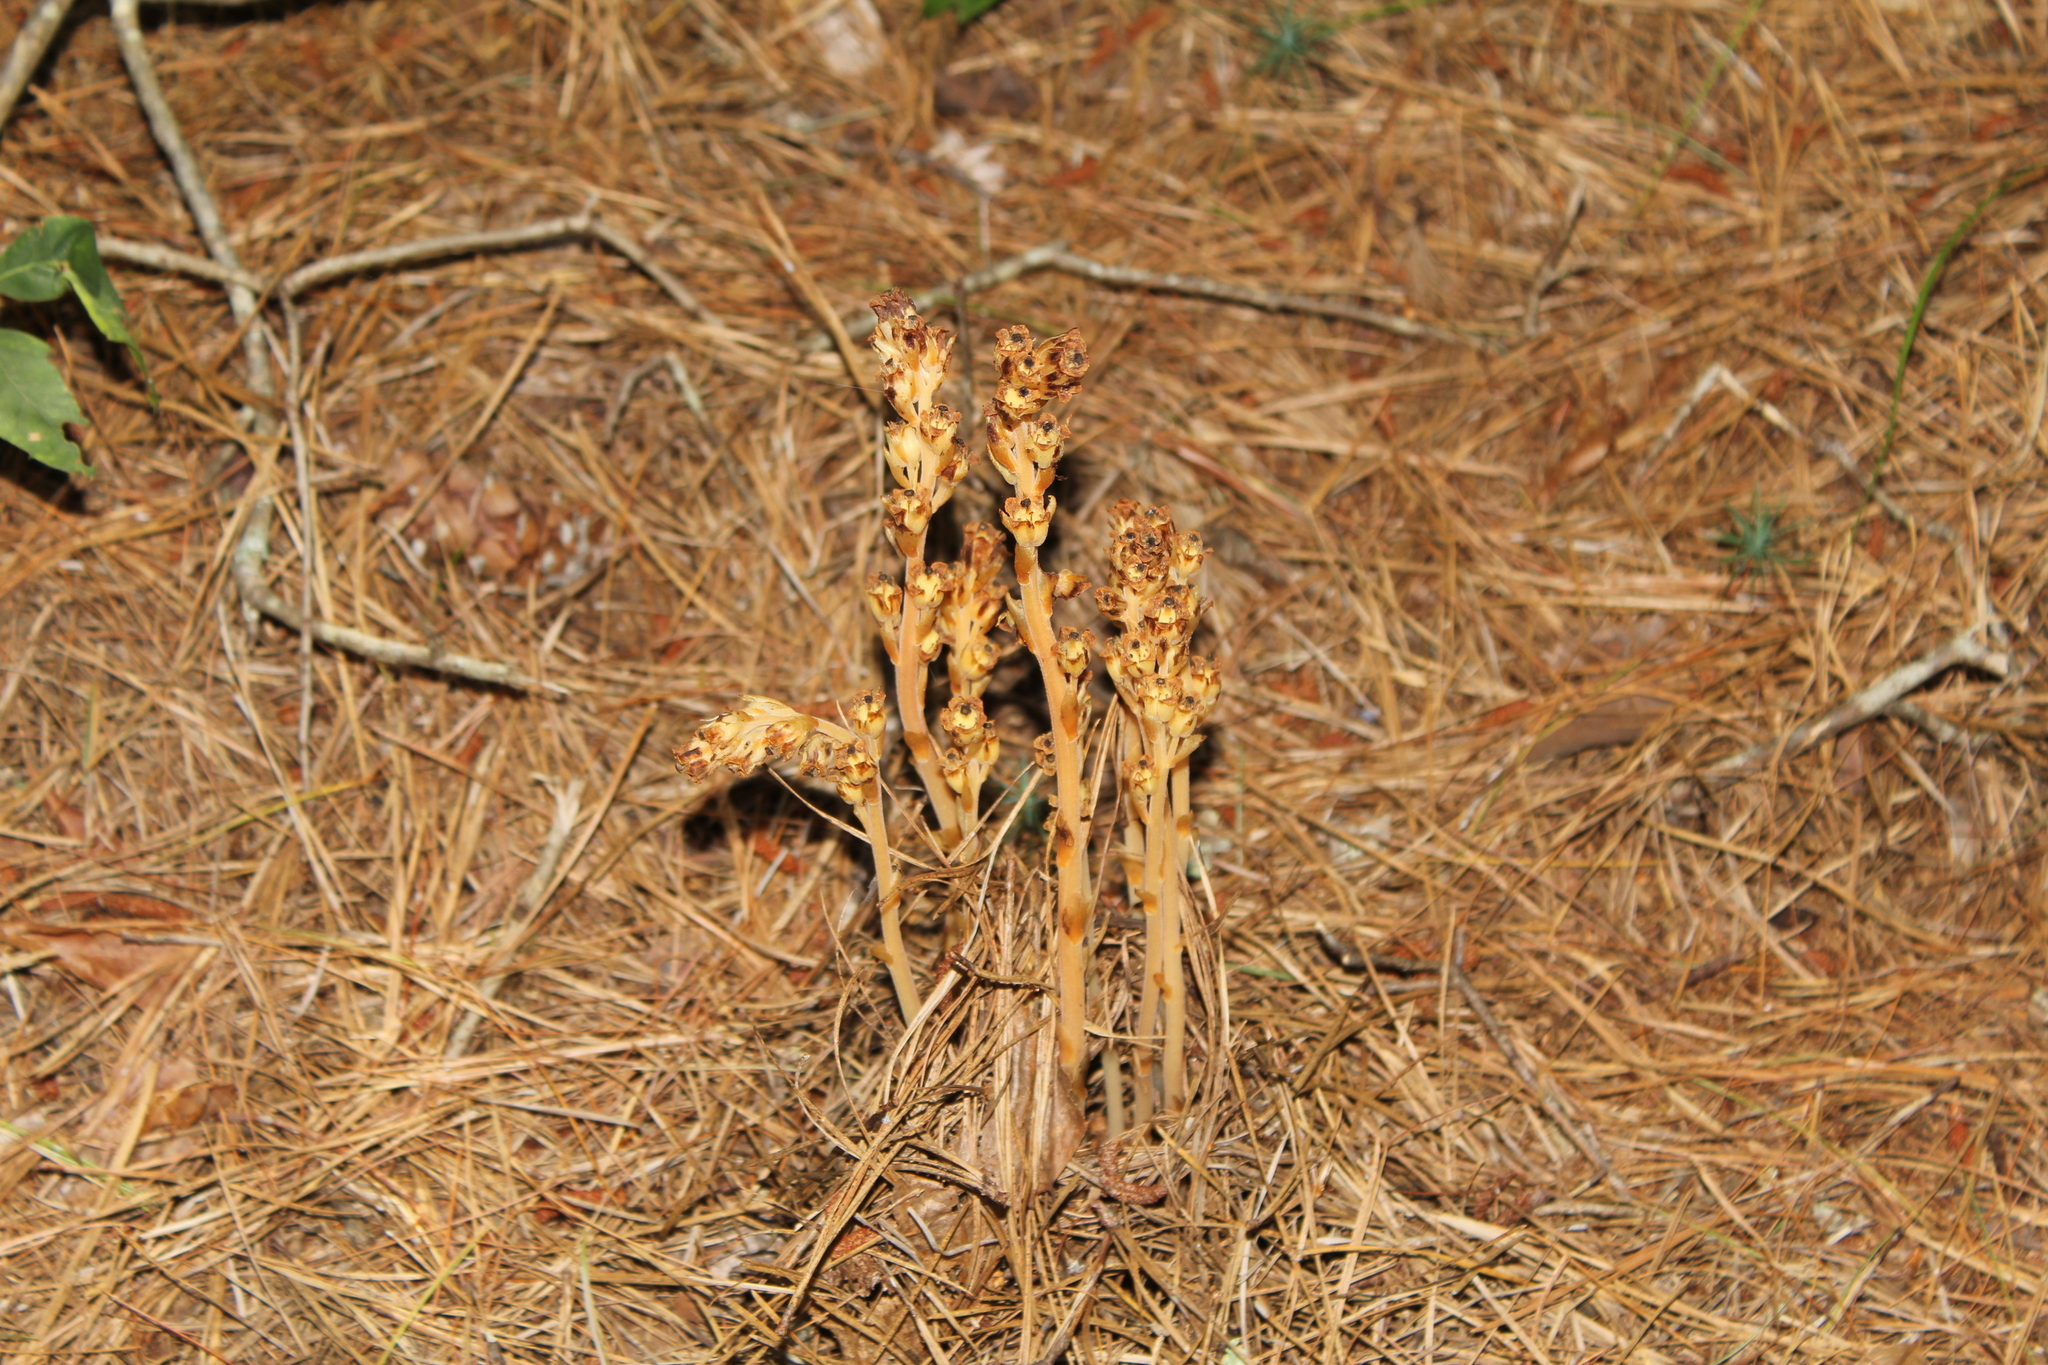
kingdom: Plantae
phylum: Tracheophyta
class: Magnoliopsida
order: Ericales
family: Ericaceae
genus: Hypopitys
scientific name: Hypopitys monotropa
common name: Yellow bird's-nest
